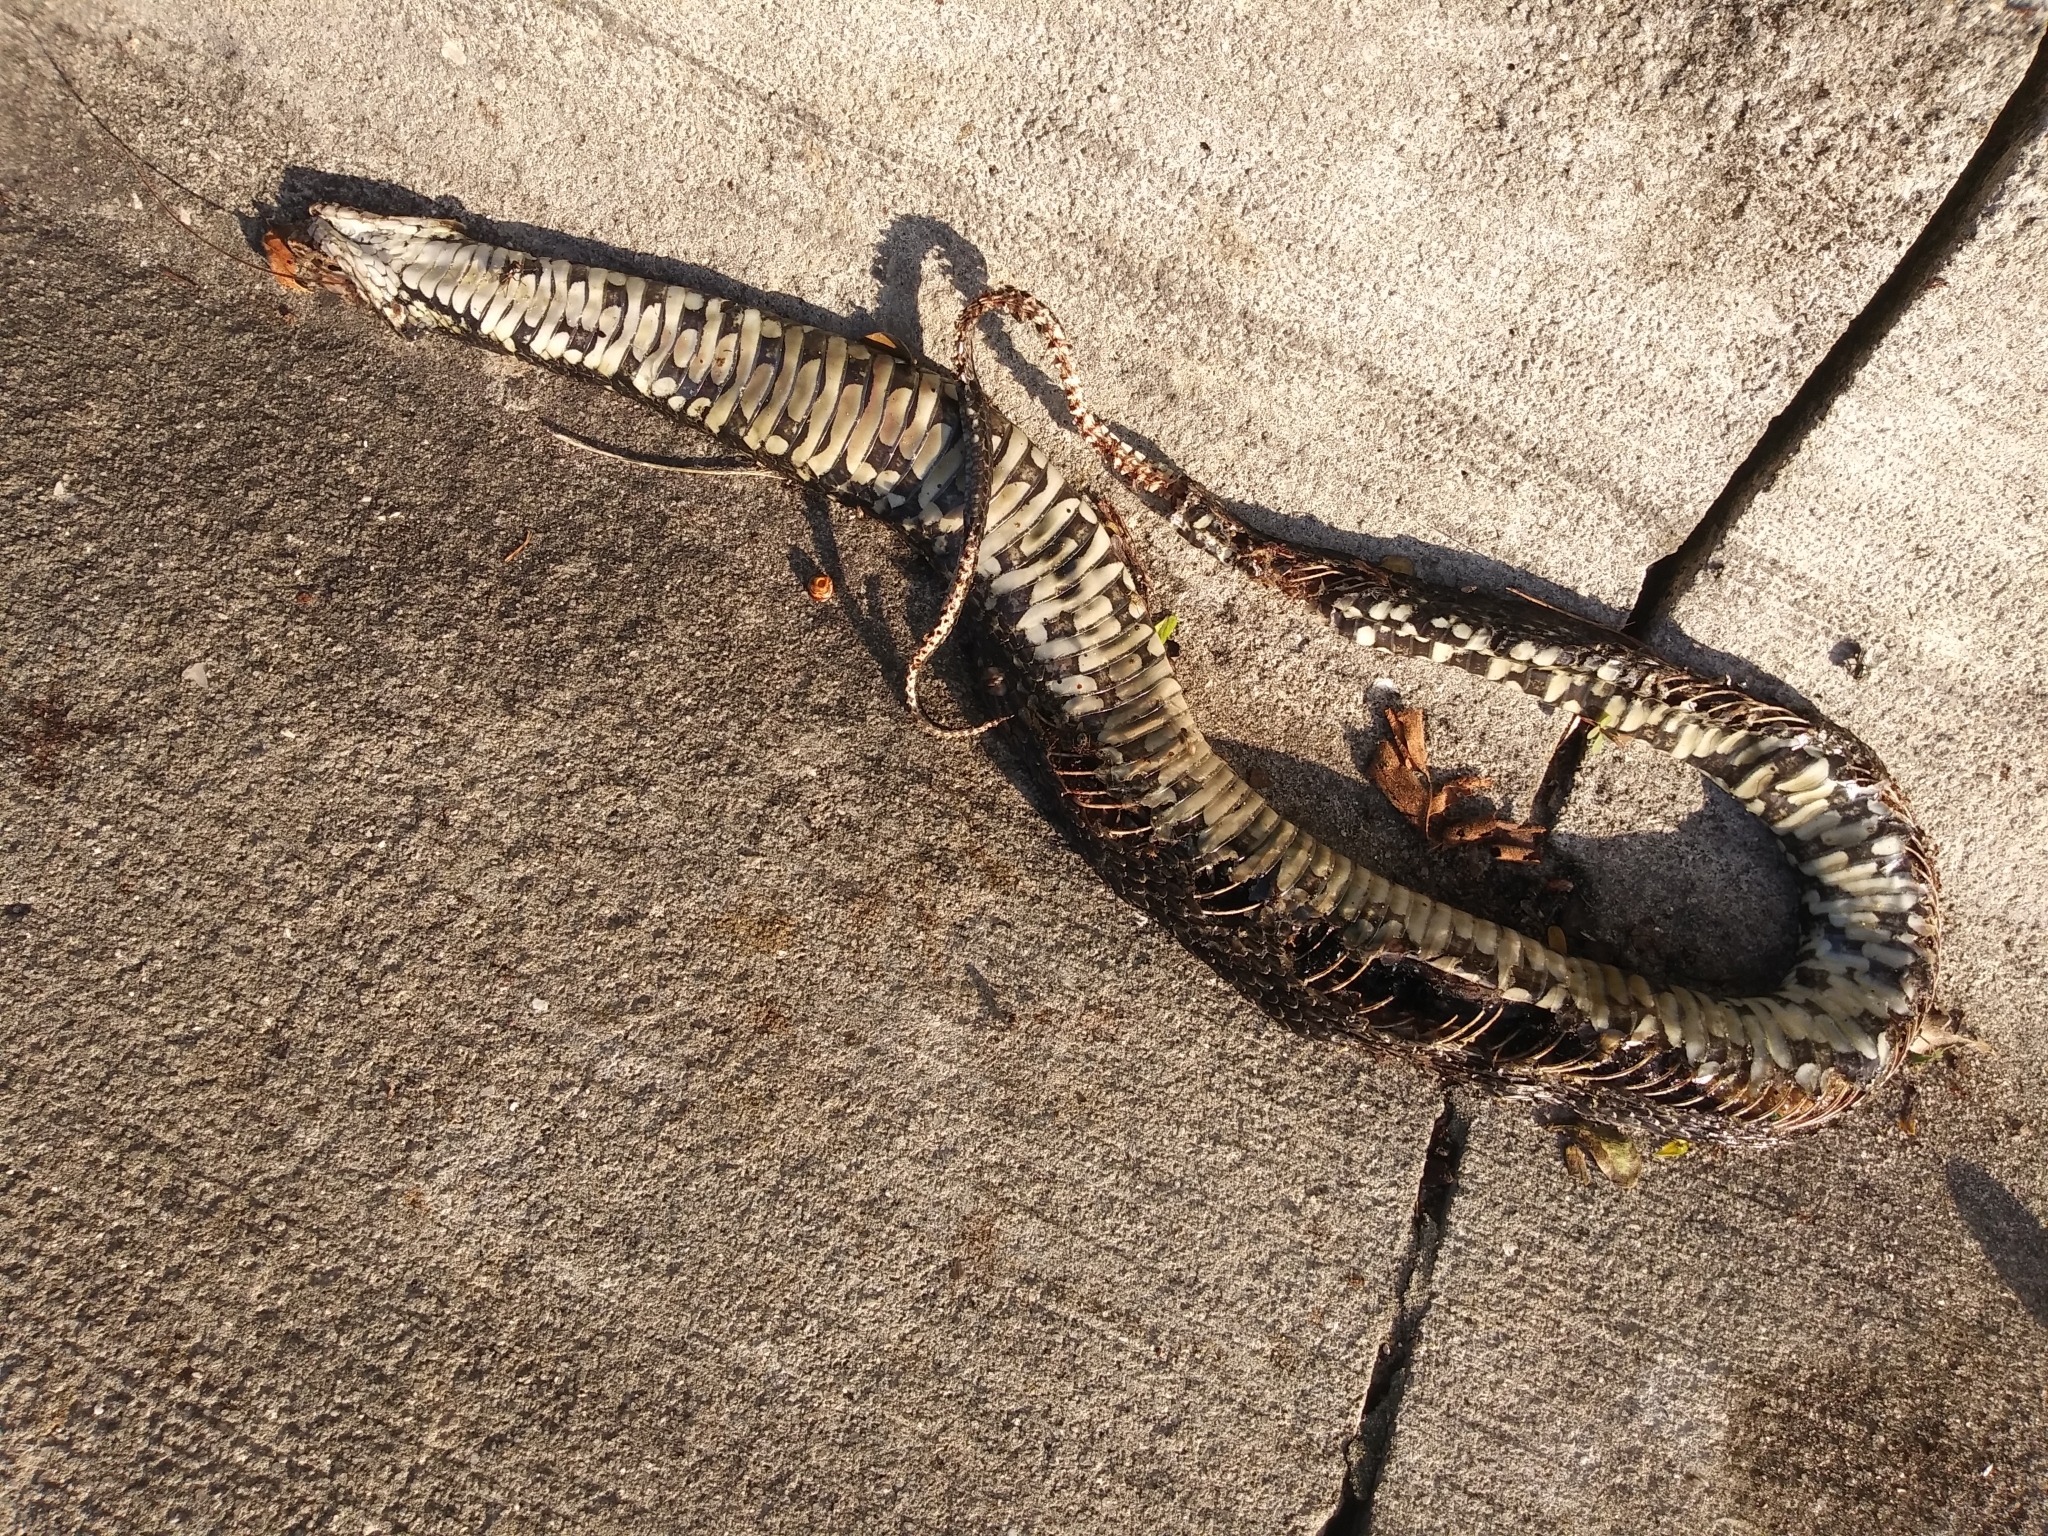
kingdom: Animalia
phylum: Chordata
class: Squamata
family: Colubridae
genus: Nerodia
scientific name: Nerodia fasciata
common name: Southern water snake
